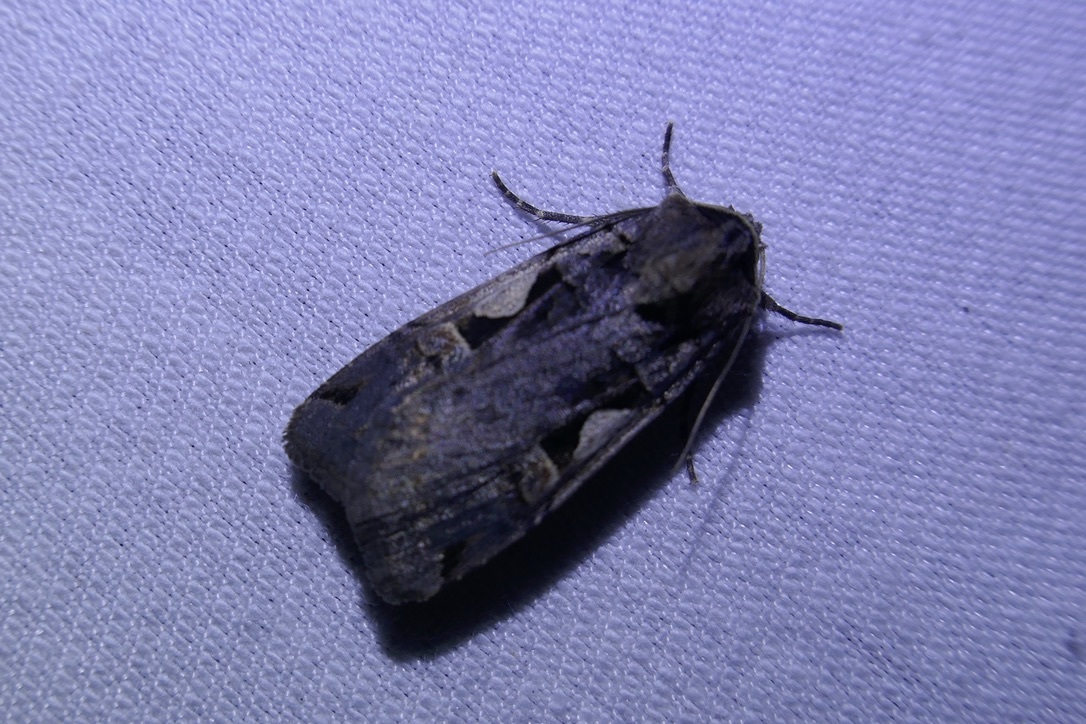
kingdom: Animalia
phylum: Arthropoda
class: Insecta
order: Lepidoptera
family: Noctuidae
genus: Xestia
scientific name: Xestia c-nigrum
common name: Setaceous hebrew character
